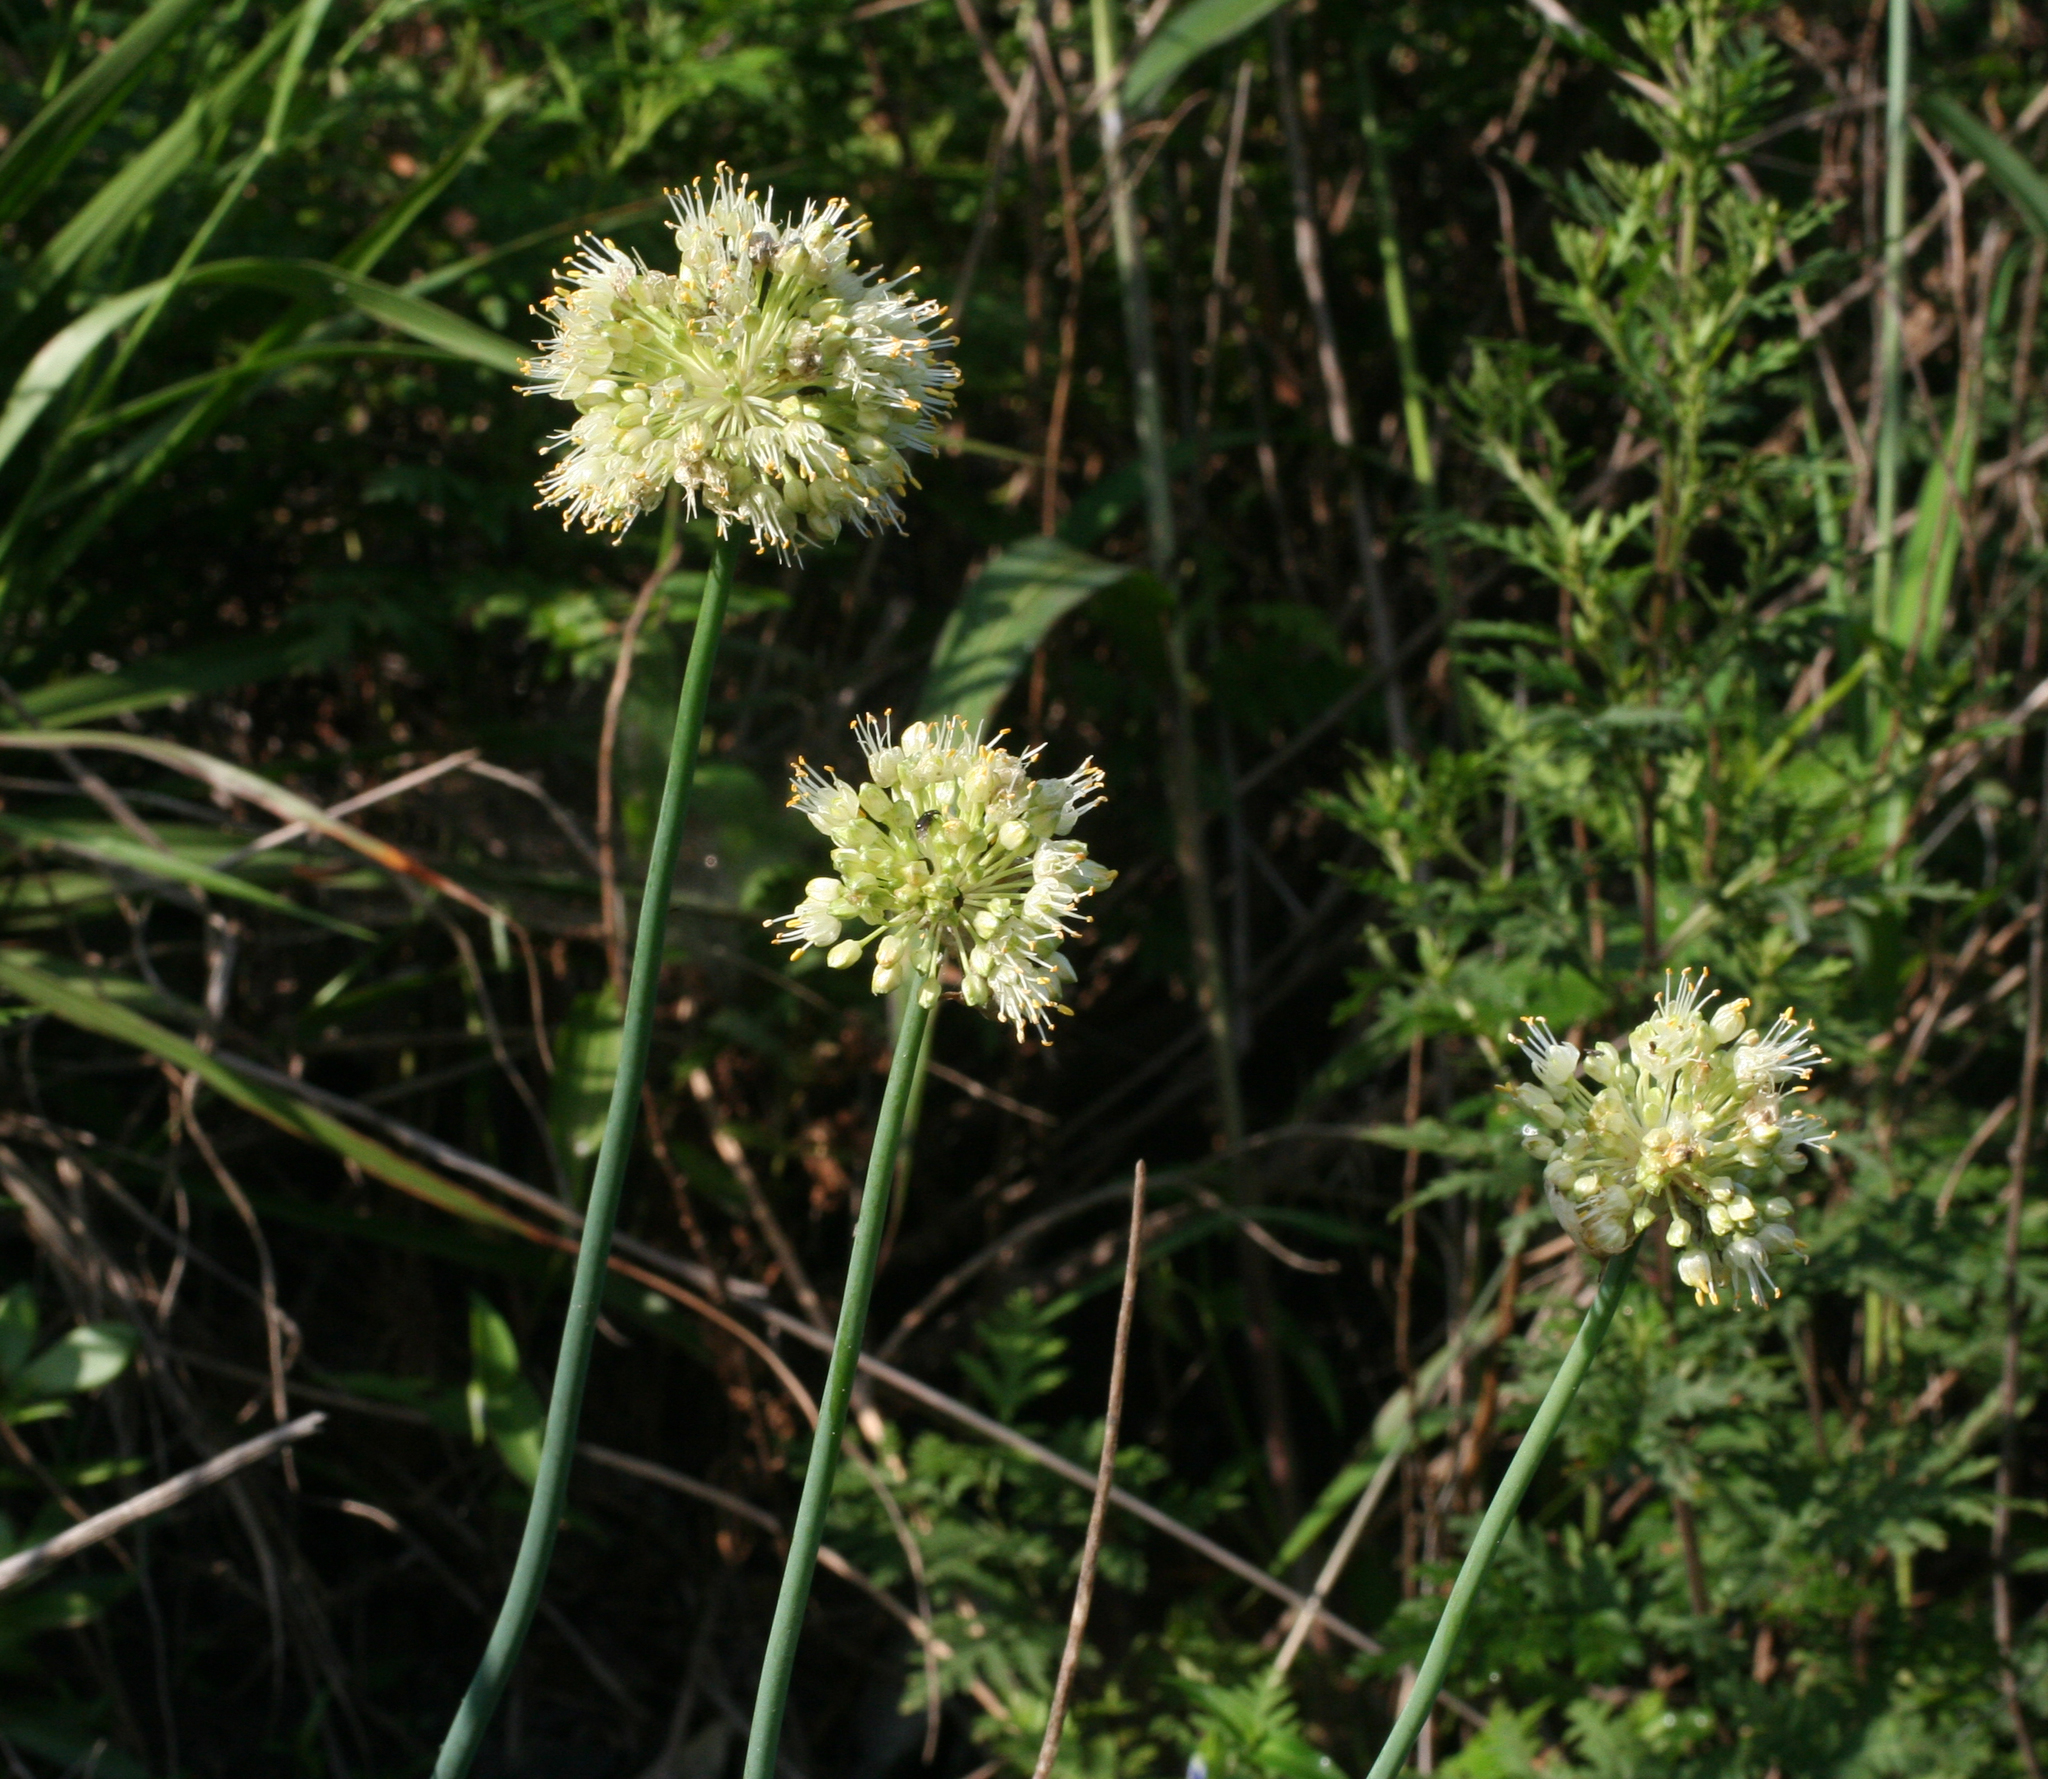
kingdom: Plantae
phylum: Tracheophyta
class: Liliopsida
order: Asparagales
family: Amaryllidaceae
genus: Allium
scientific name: Allium condensatum
